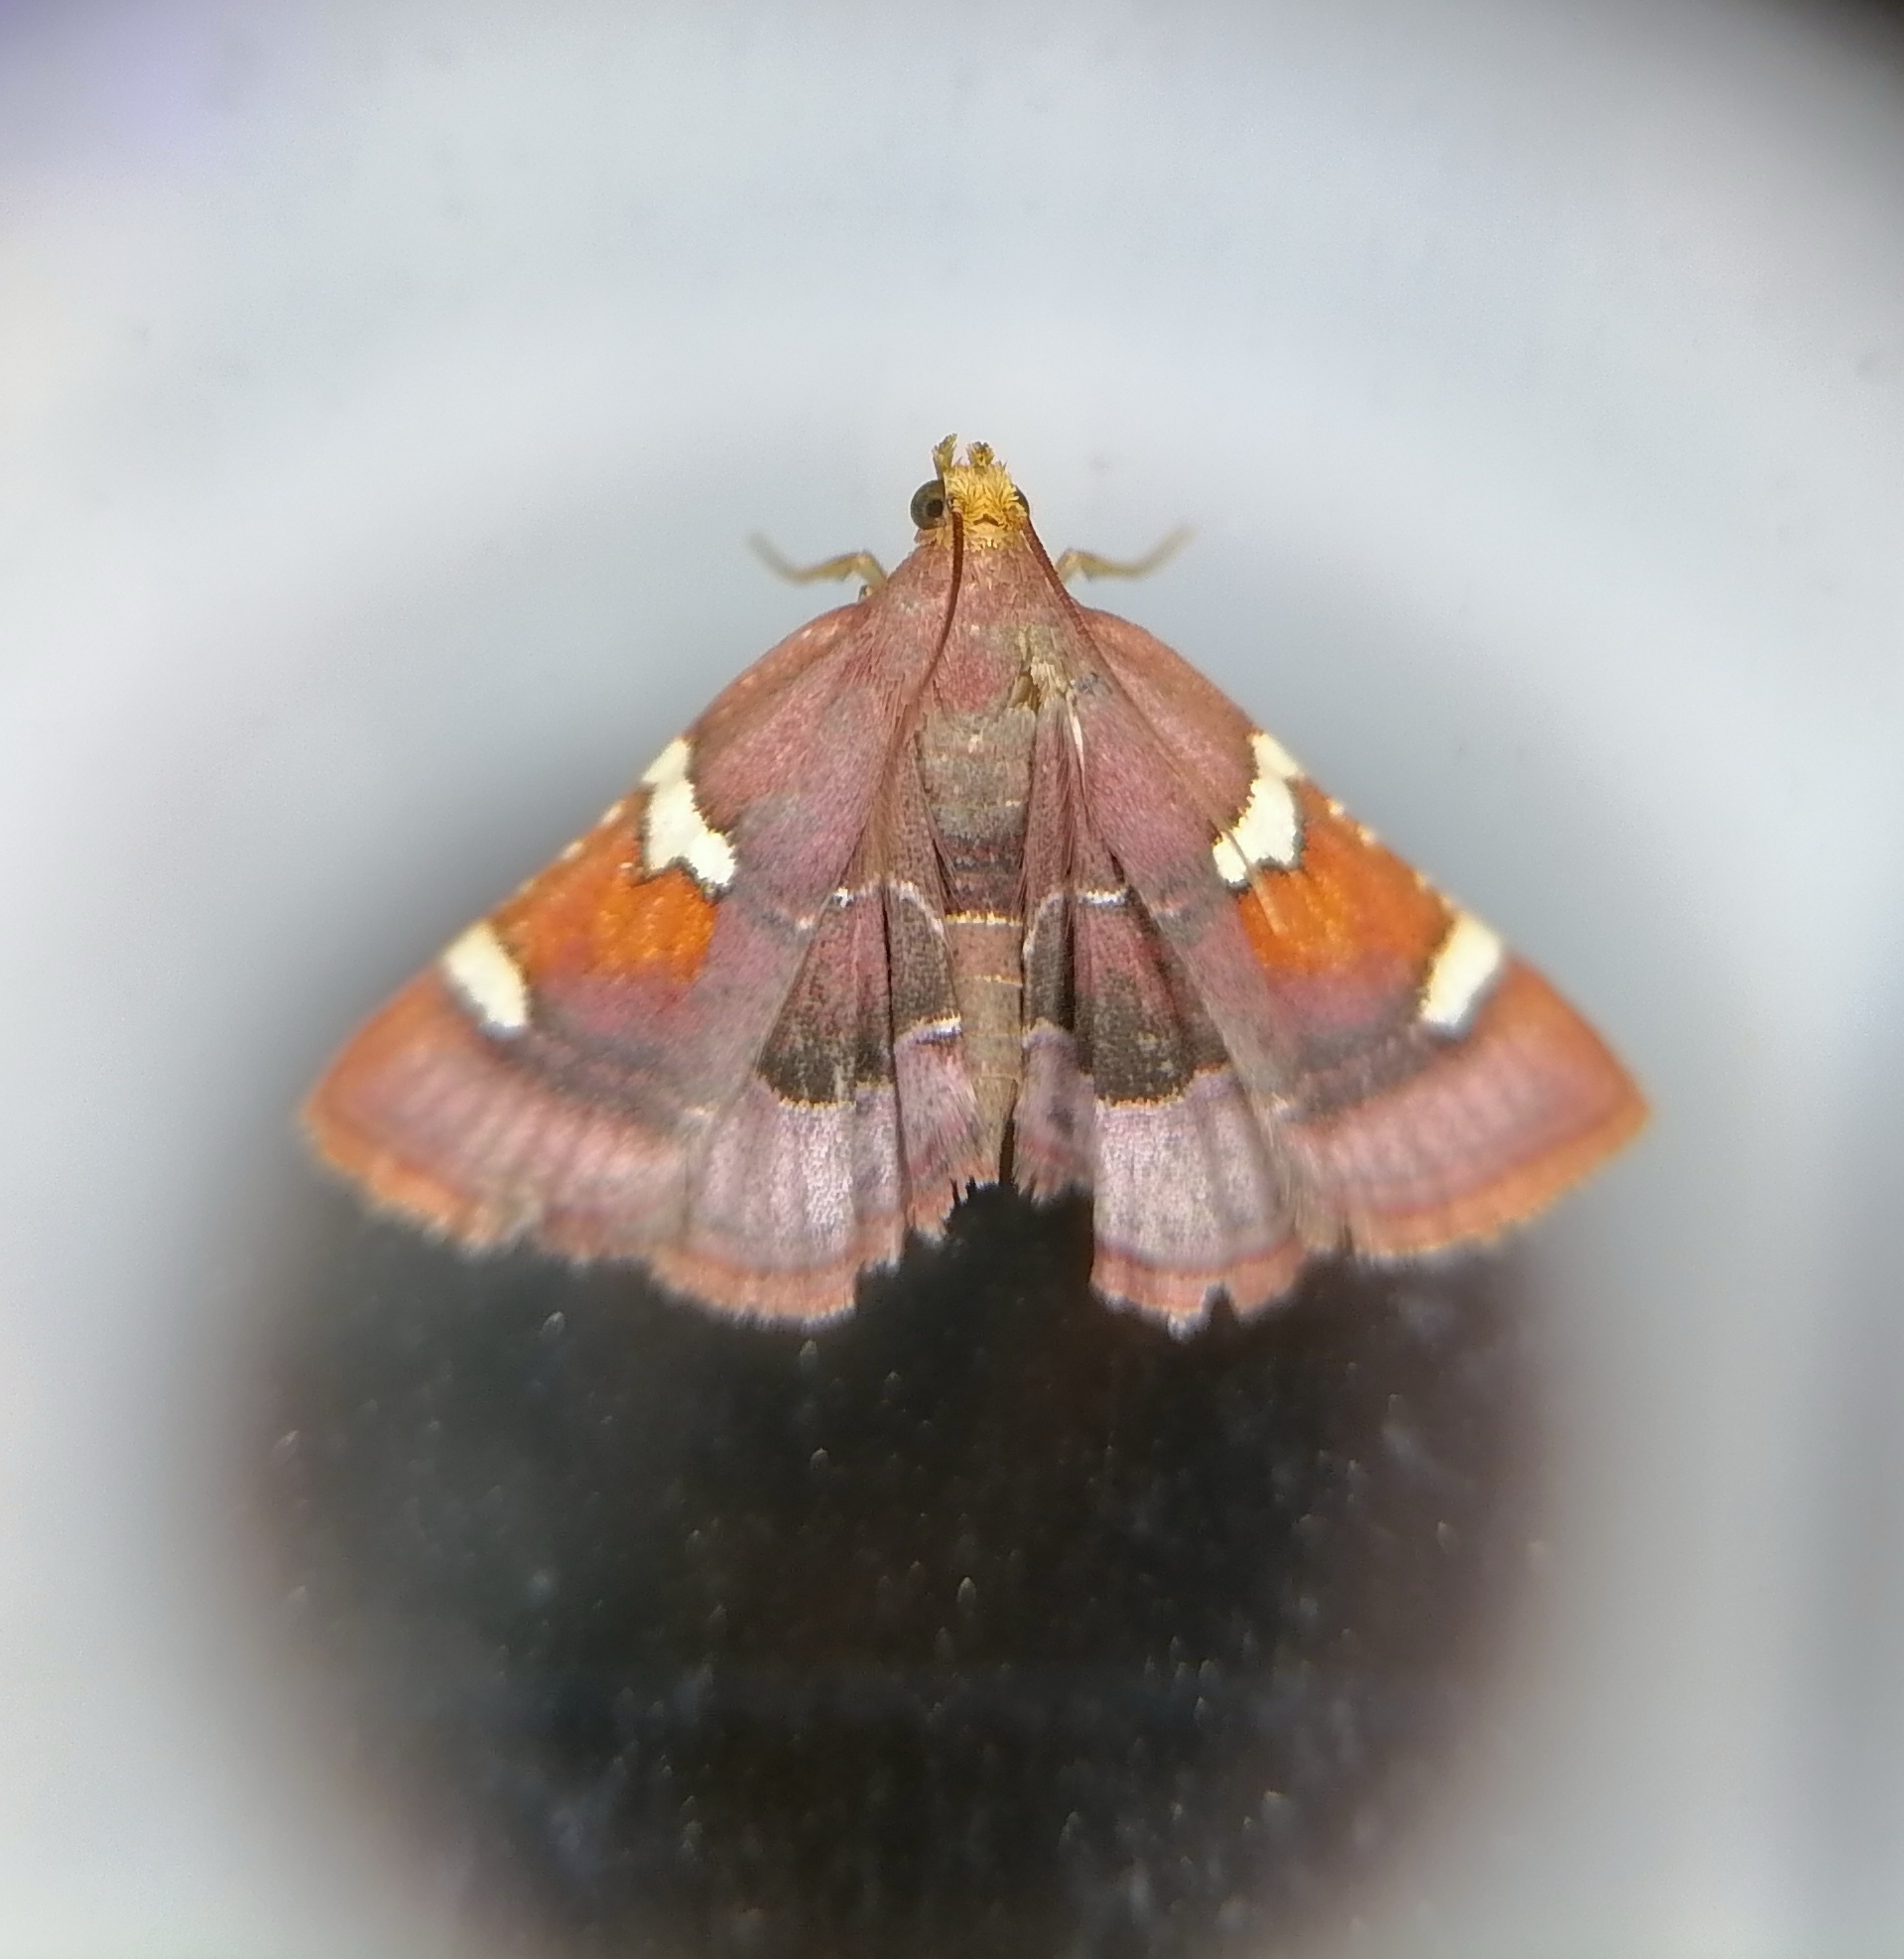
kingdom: Animalia
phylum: Arthropoda
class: Insecta
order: Lepidoptera
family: Pyralidae
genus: Pyralis
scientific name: Pyralis cardinalis
